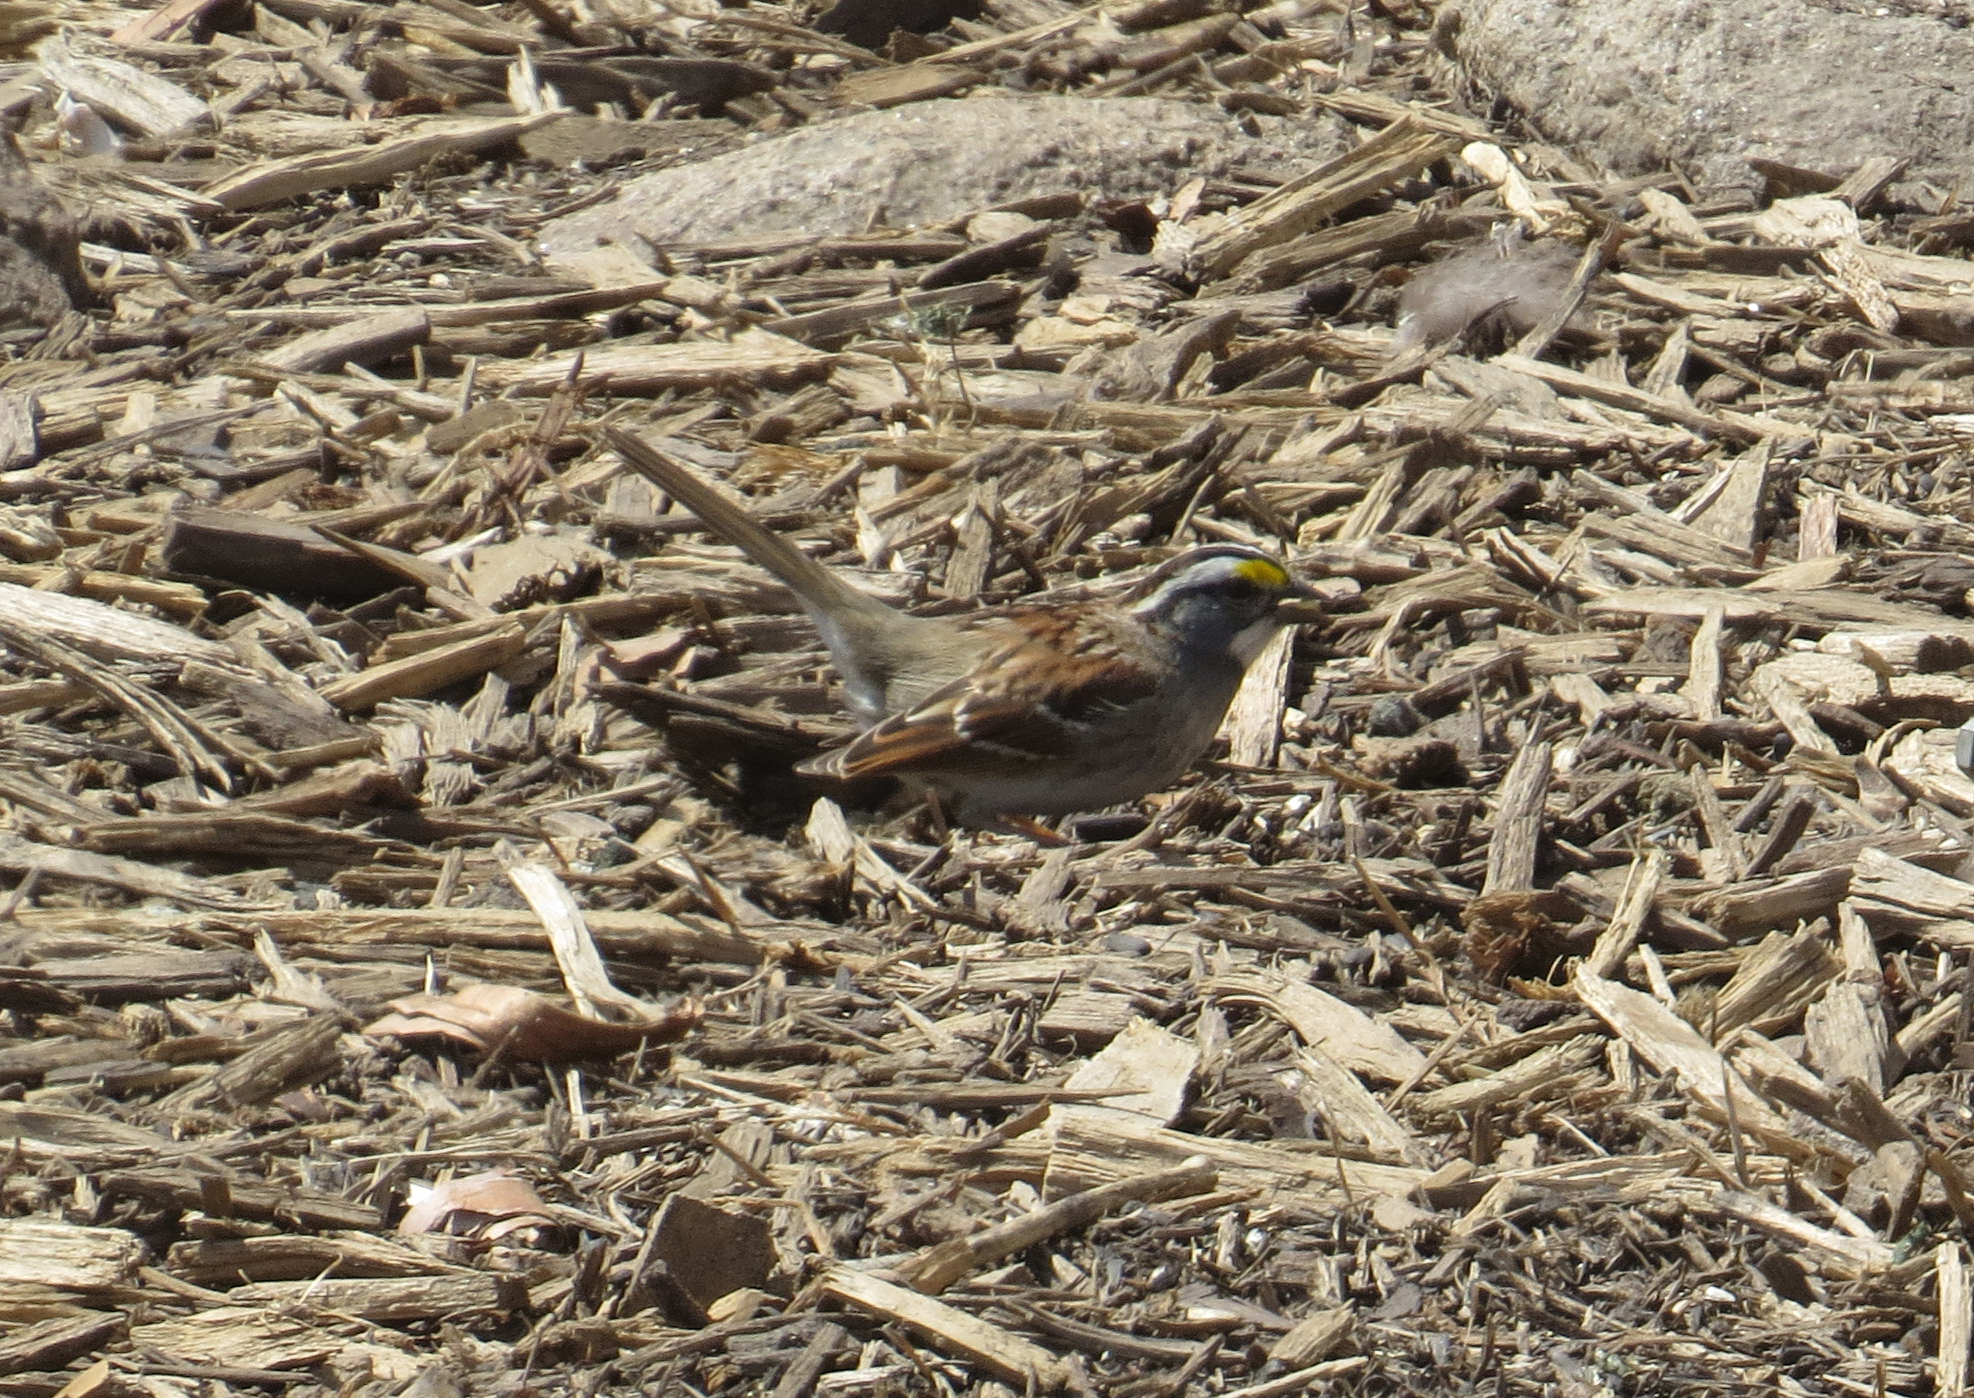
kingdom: Animalia
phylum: Chordata
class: Aves
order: Passeriformes
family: Passerellidae
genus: Zonotrichia
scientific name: Zonotrichia albicollis
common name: White-throated sparrow
